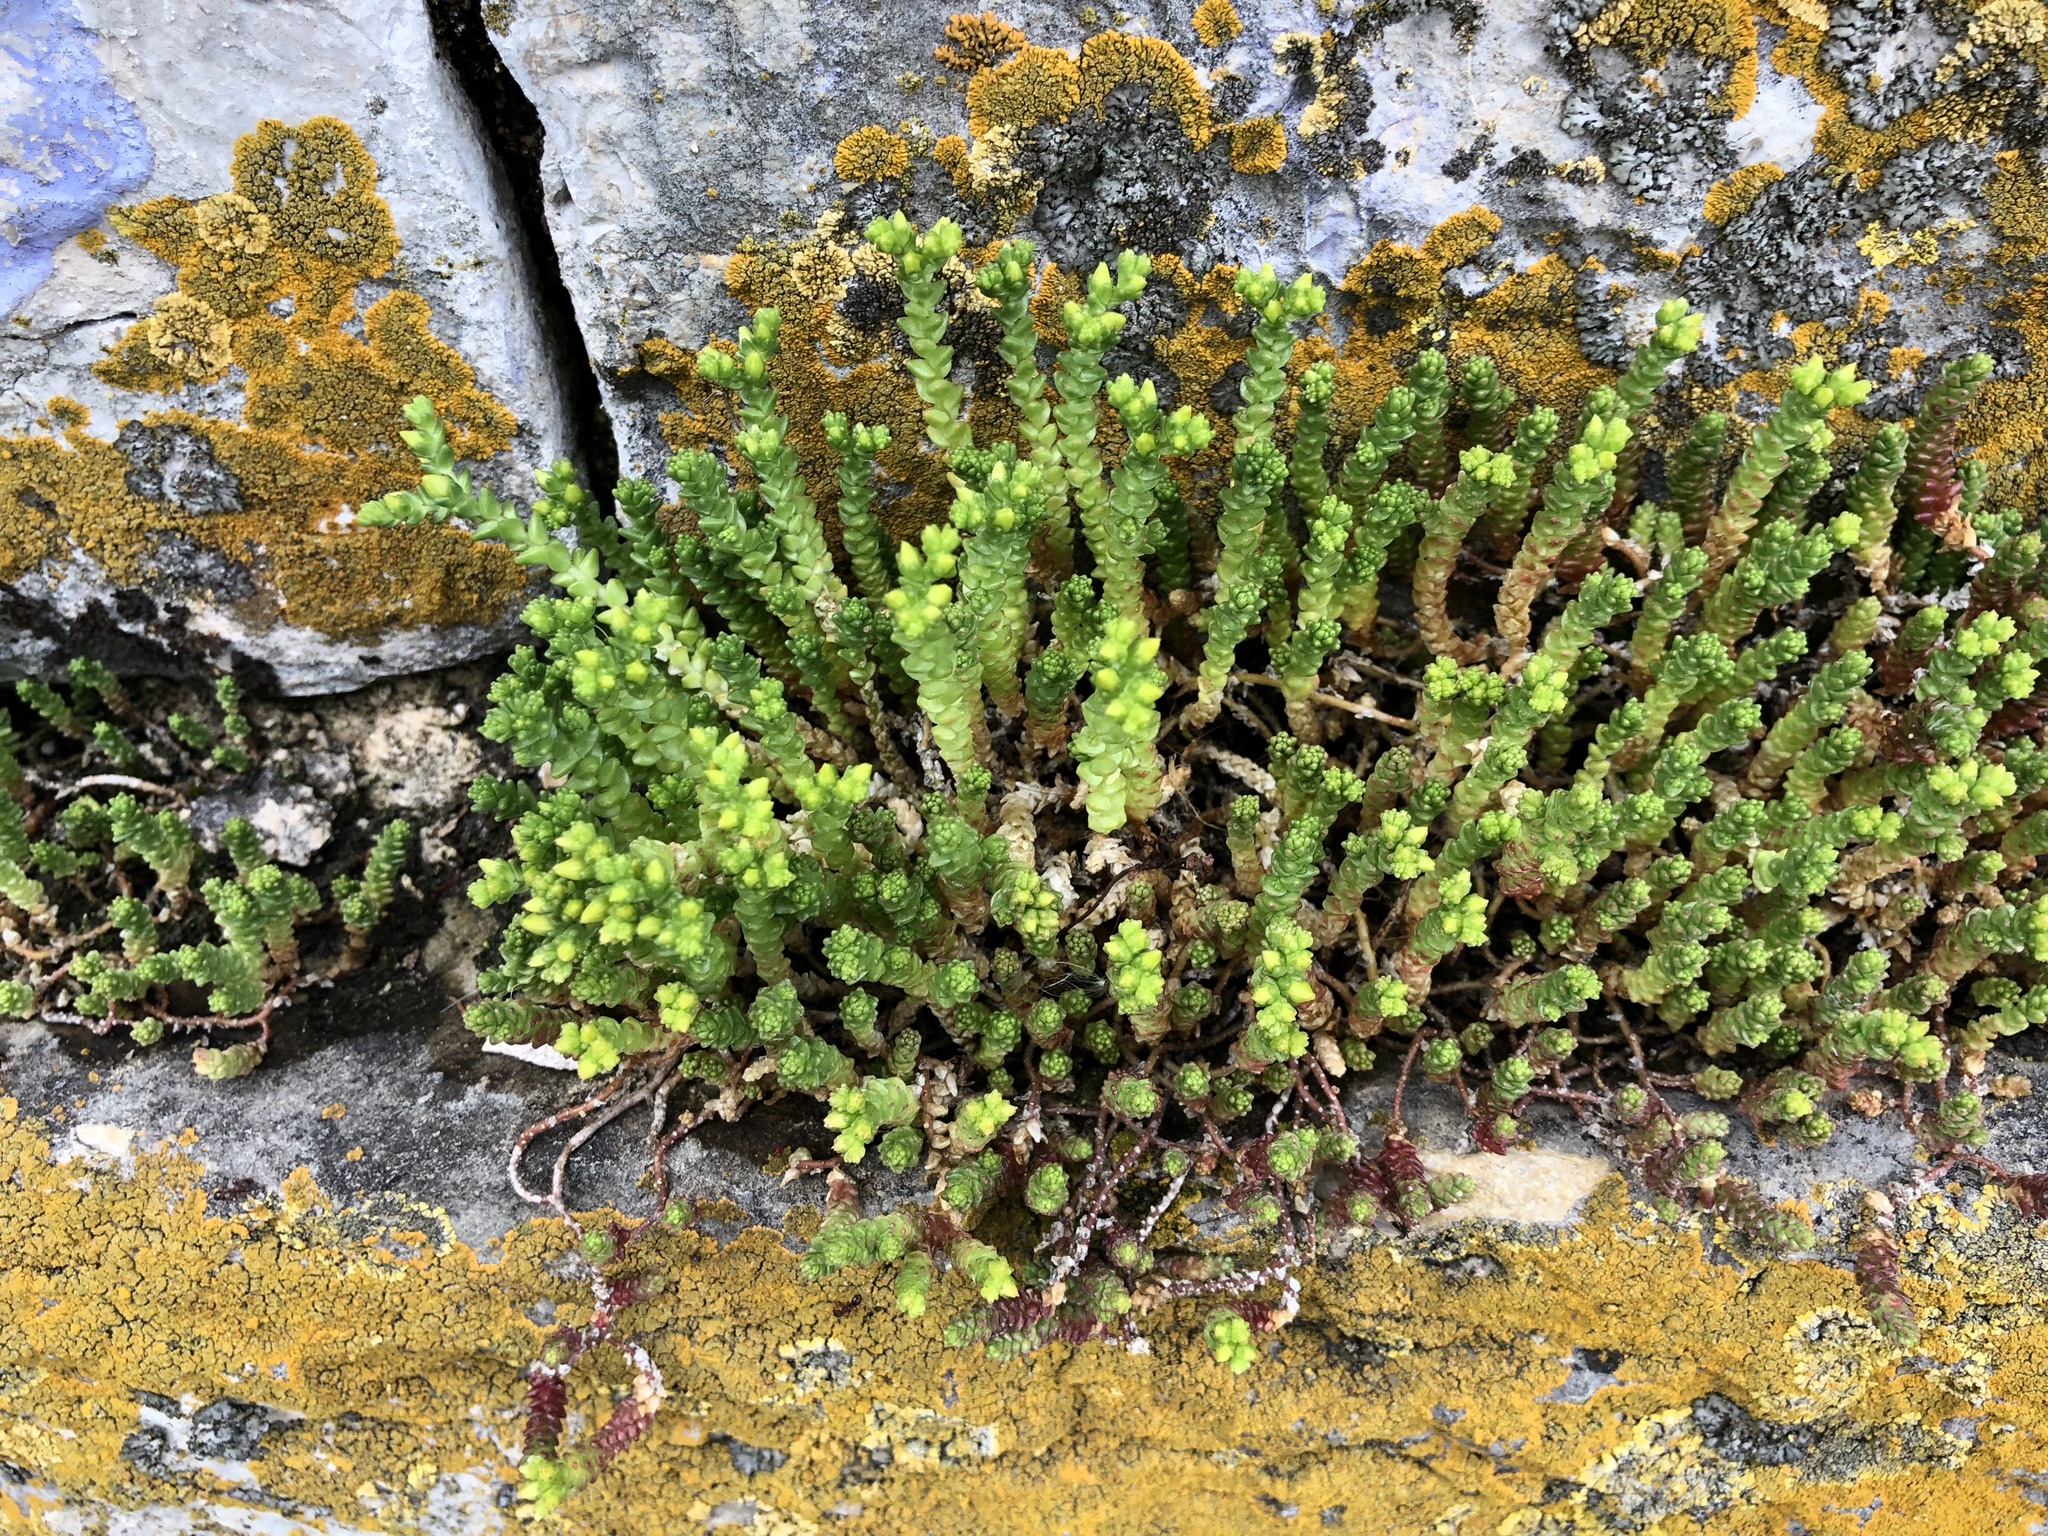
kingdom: Plantae
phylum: Tracheophyta
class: Magnoliopsida
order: Saxifragales
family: Crassulaceae
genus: Sedum
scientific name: Sedum acre
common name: Biting stonecrop
